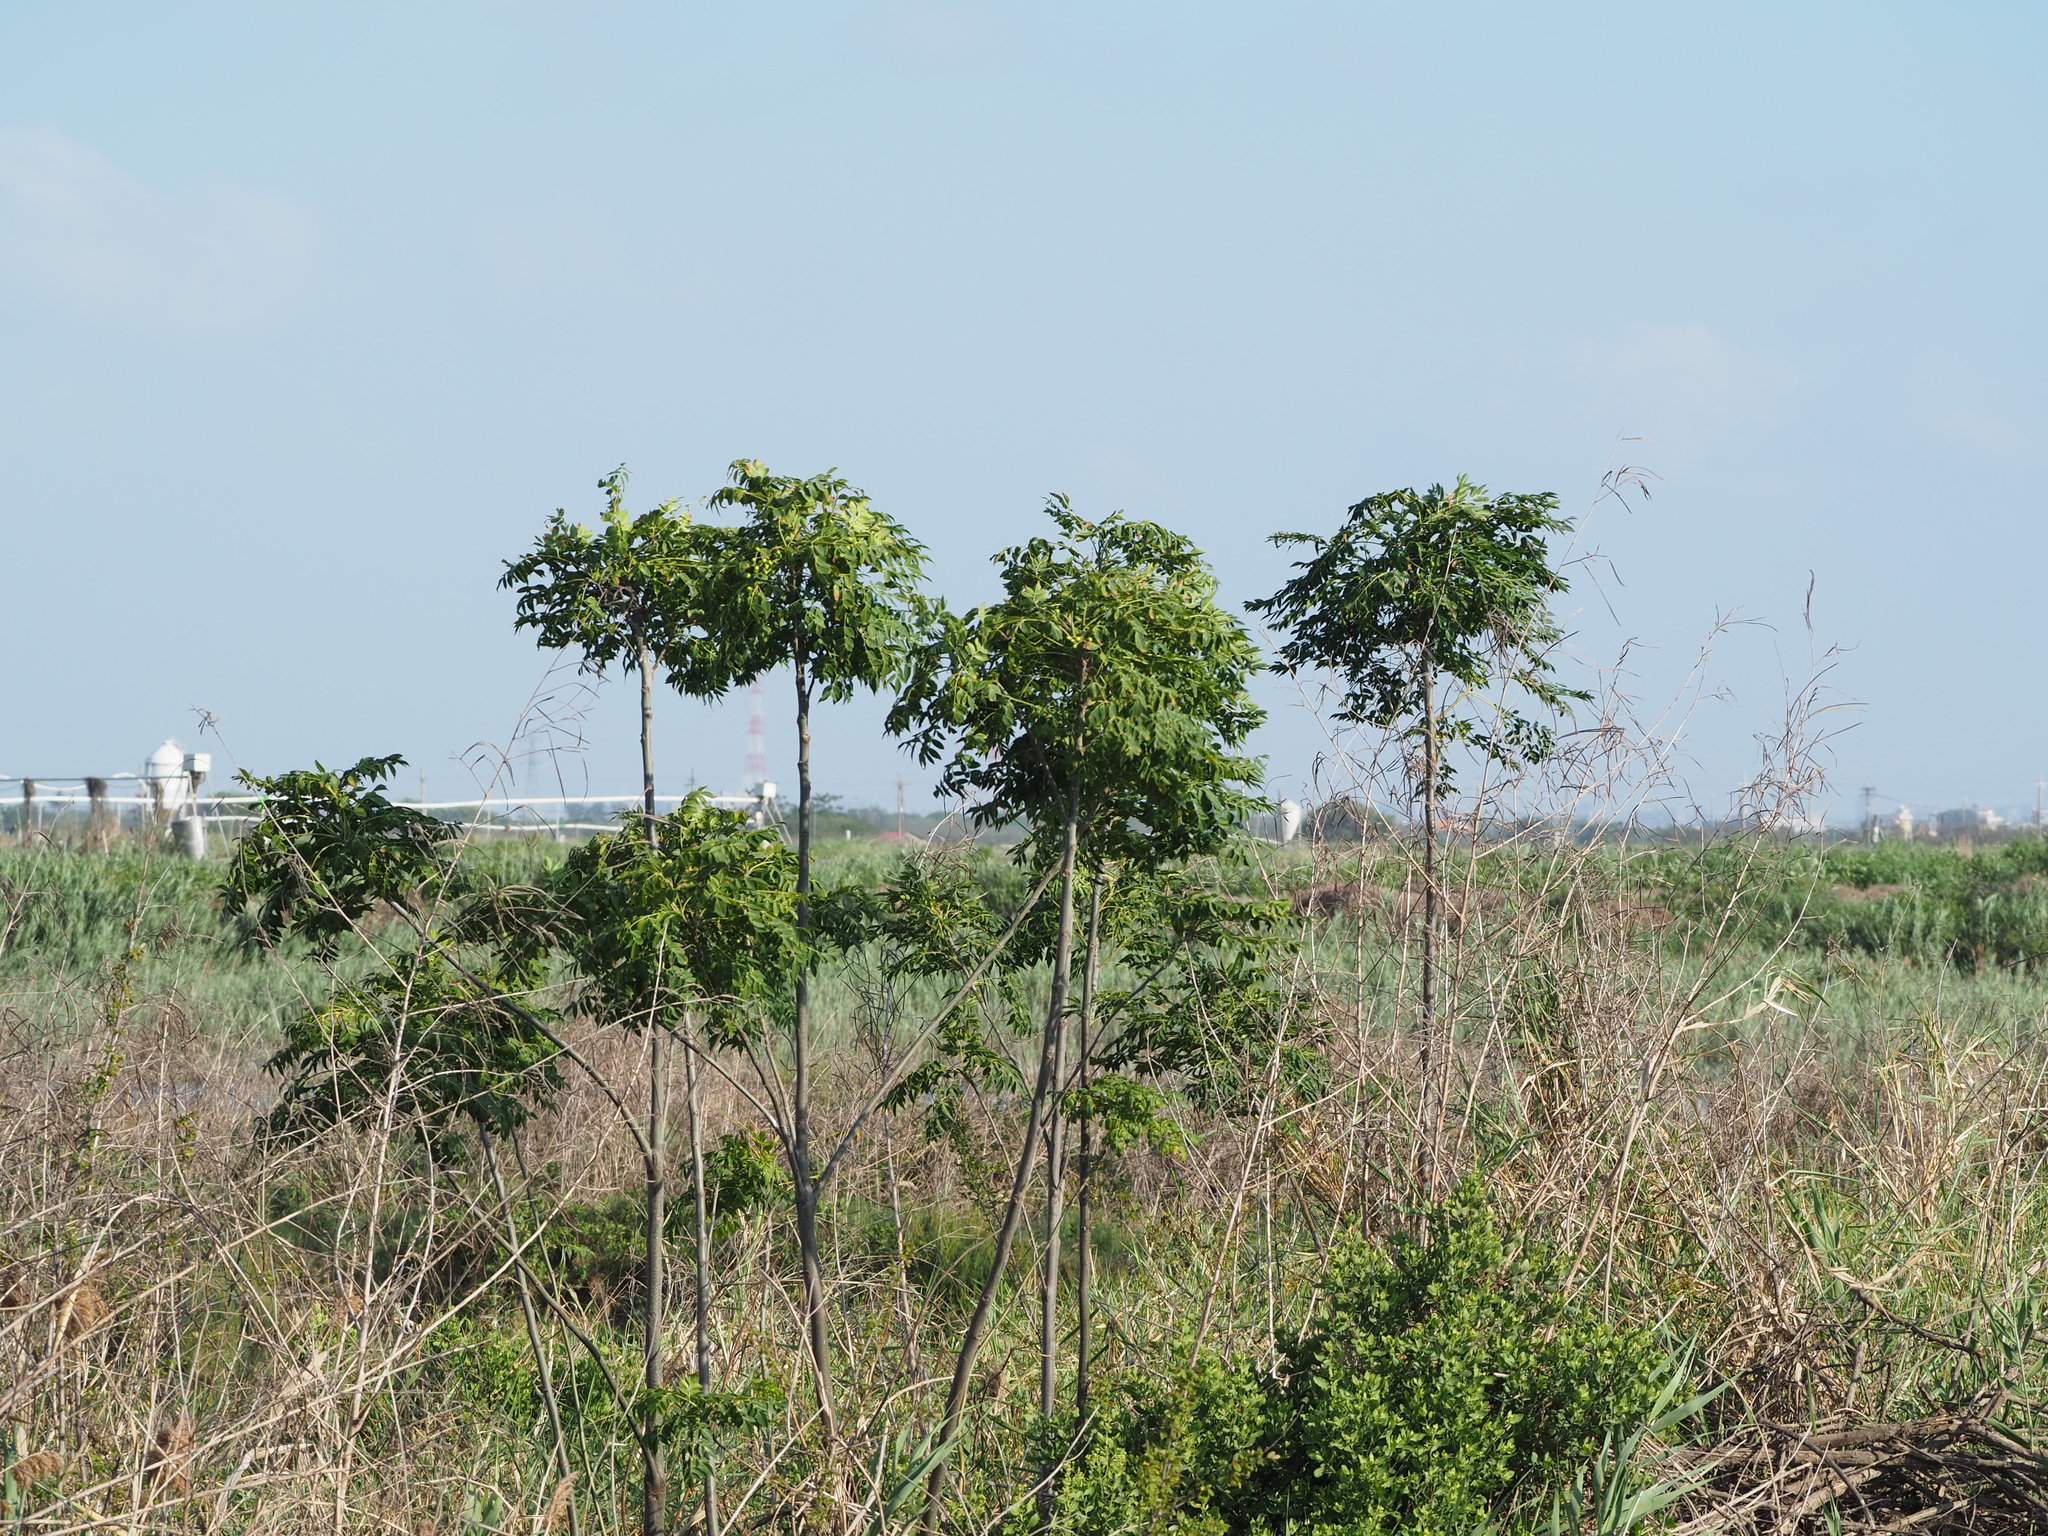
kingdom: Plantae
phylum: Tracheophyta
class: Magnoliopsida
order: Sapindales
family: Meliaceae
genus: Melia
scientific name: Melia azedarach
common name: Chinaberrytree
